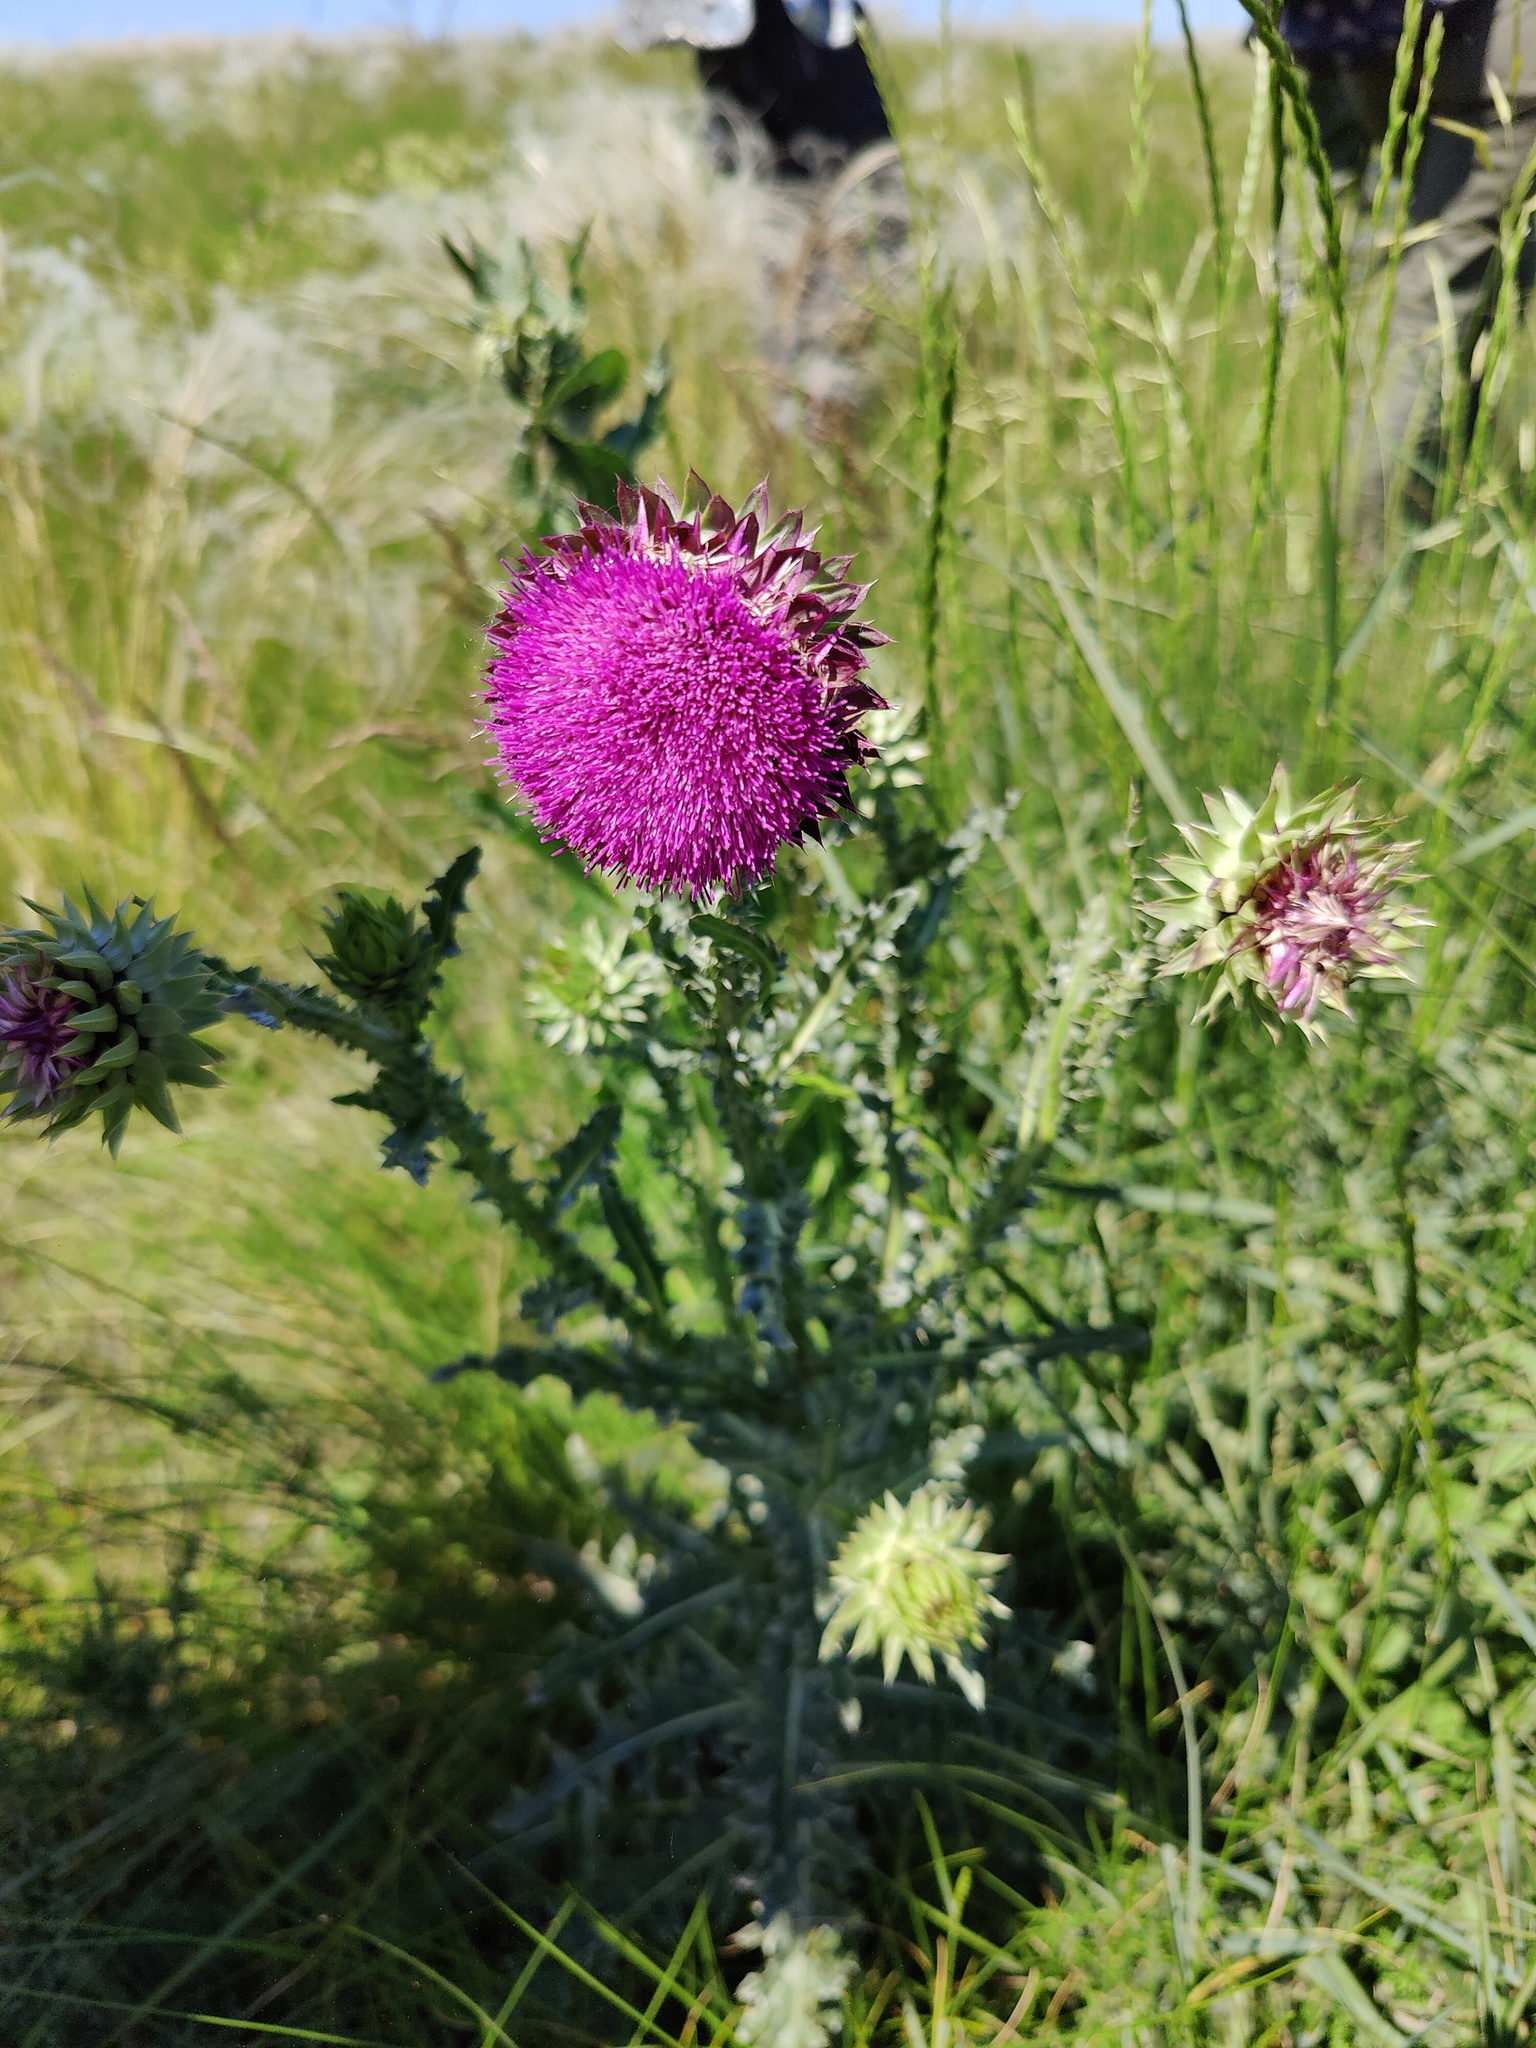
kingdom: Plantae
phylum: Tracheophyta
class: Magnoliopsida
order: Asterales
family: Asteraceae
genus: Carduus
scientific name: Carduus nutans
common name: Musk thistle
